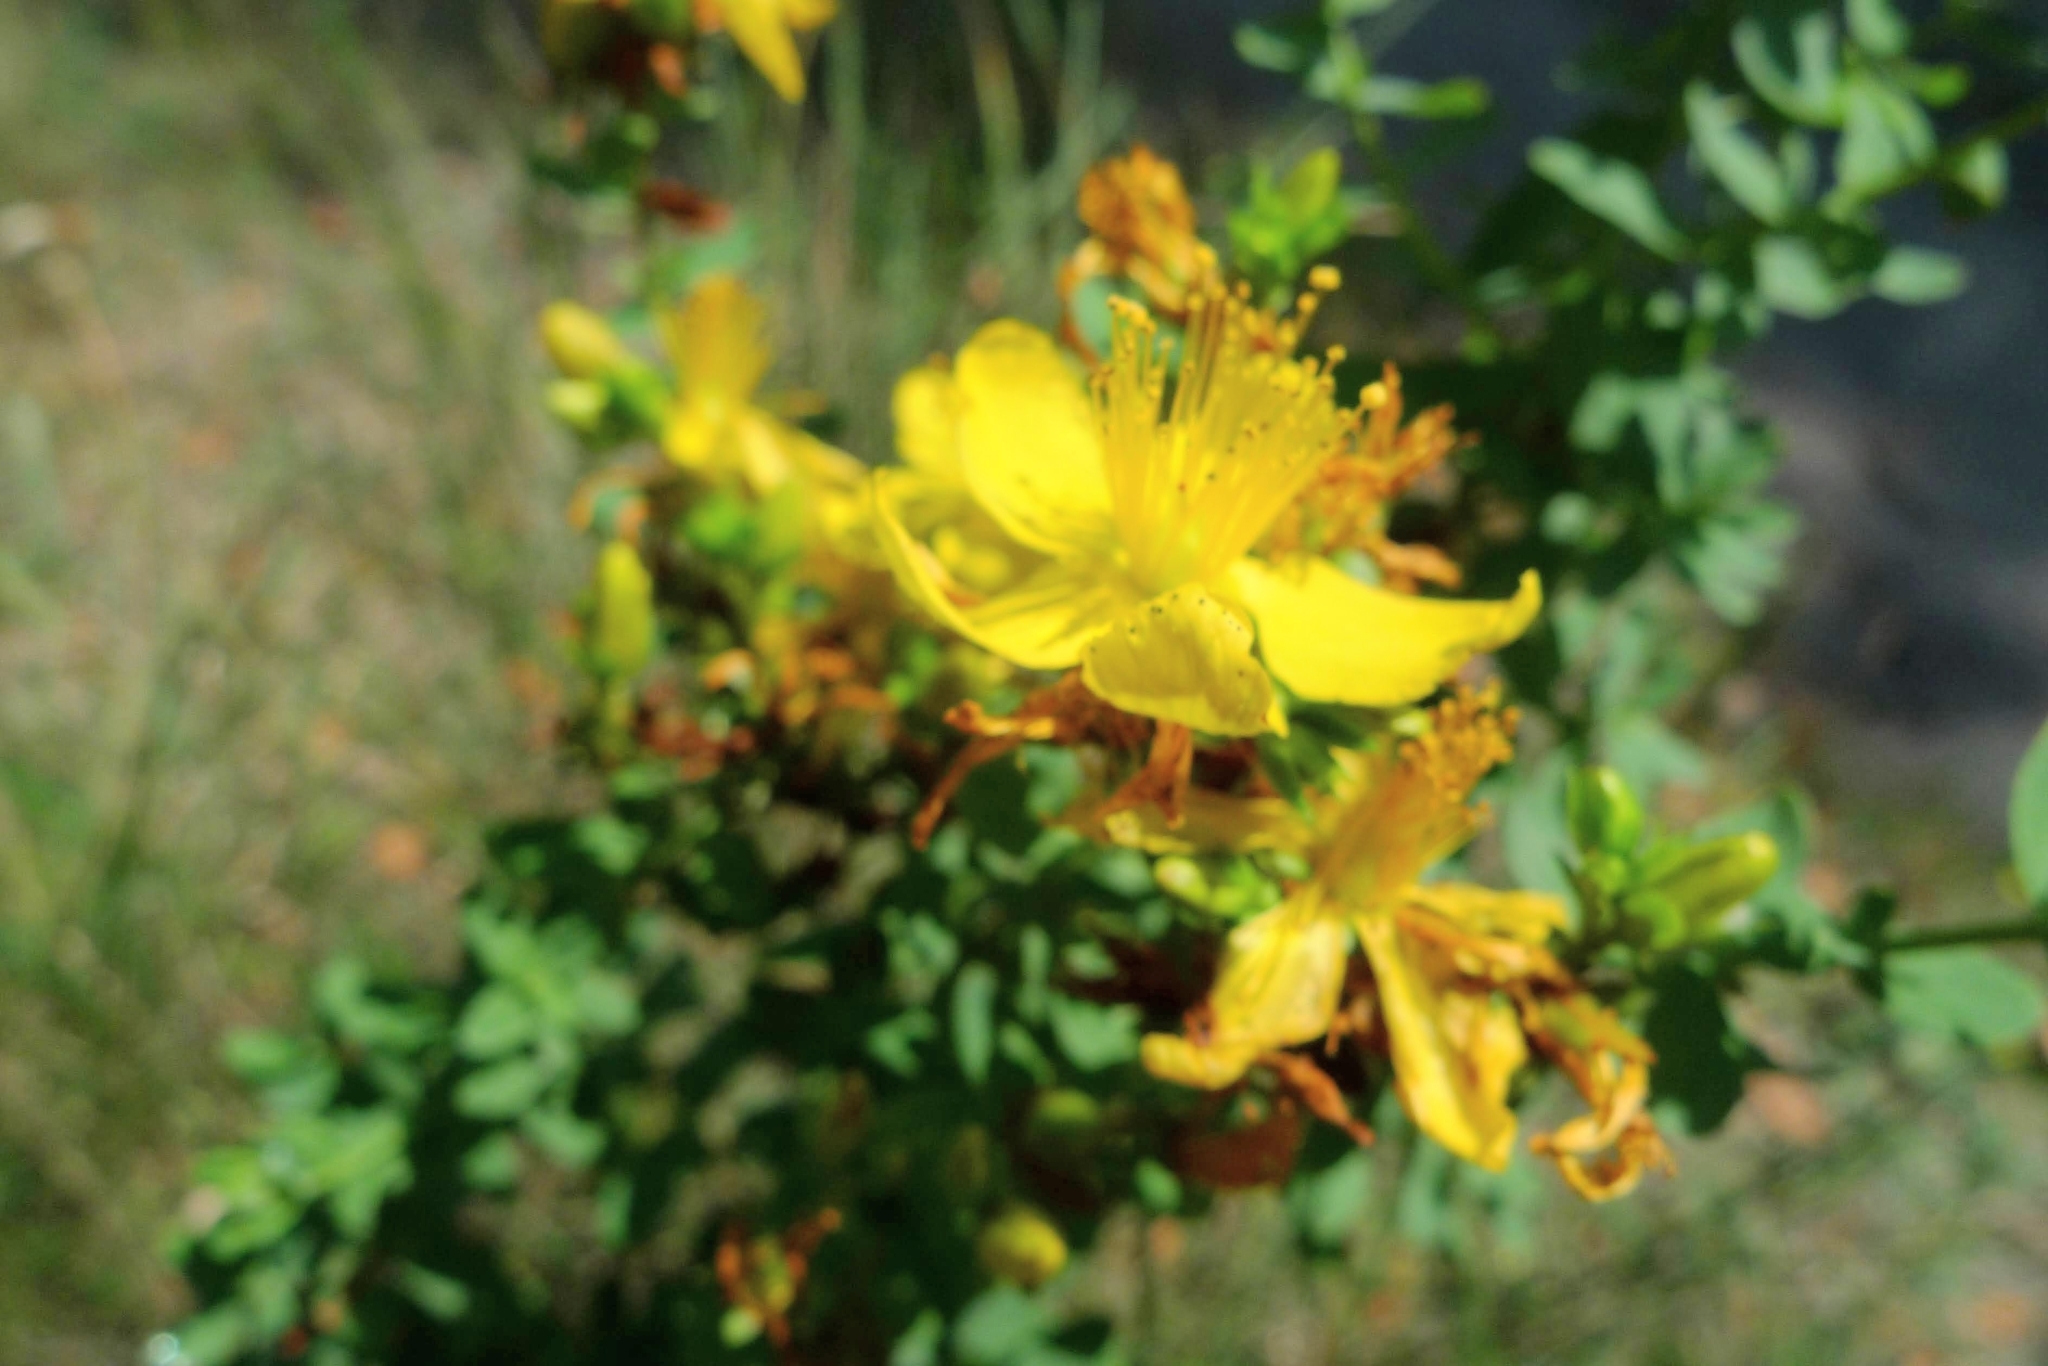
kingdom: Plantae
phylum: Tracheophyta
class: Magnoliopsida
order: Malpighiales
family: Hypericaceae
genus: Hypericum
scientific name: Hypericum perforatum
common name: Common st. johnswort
